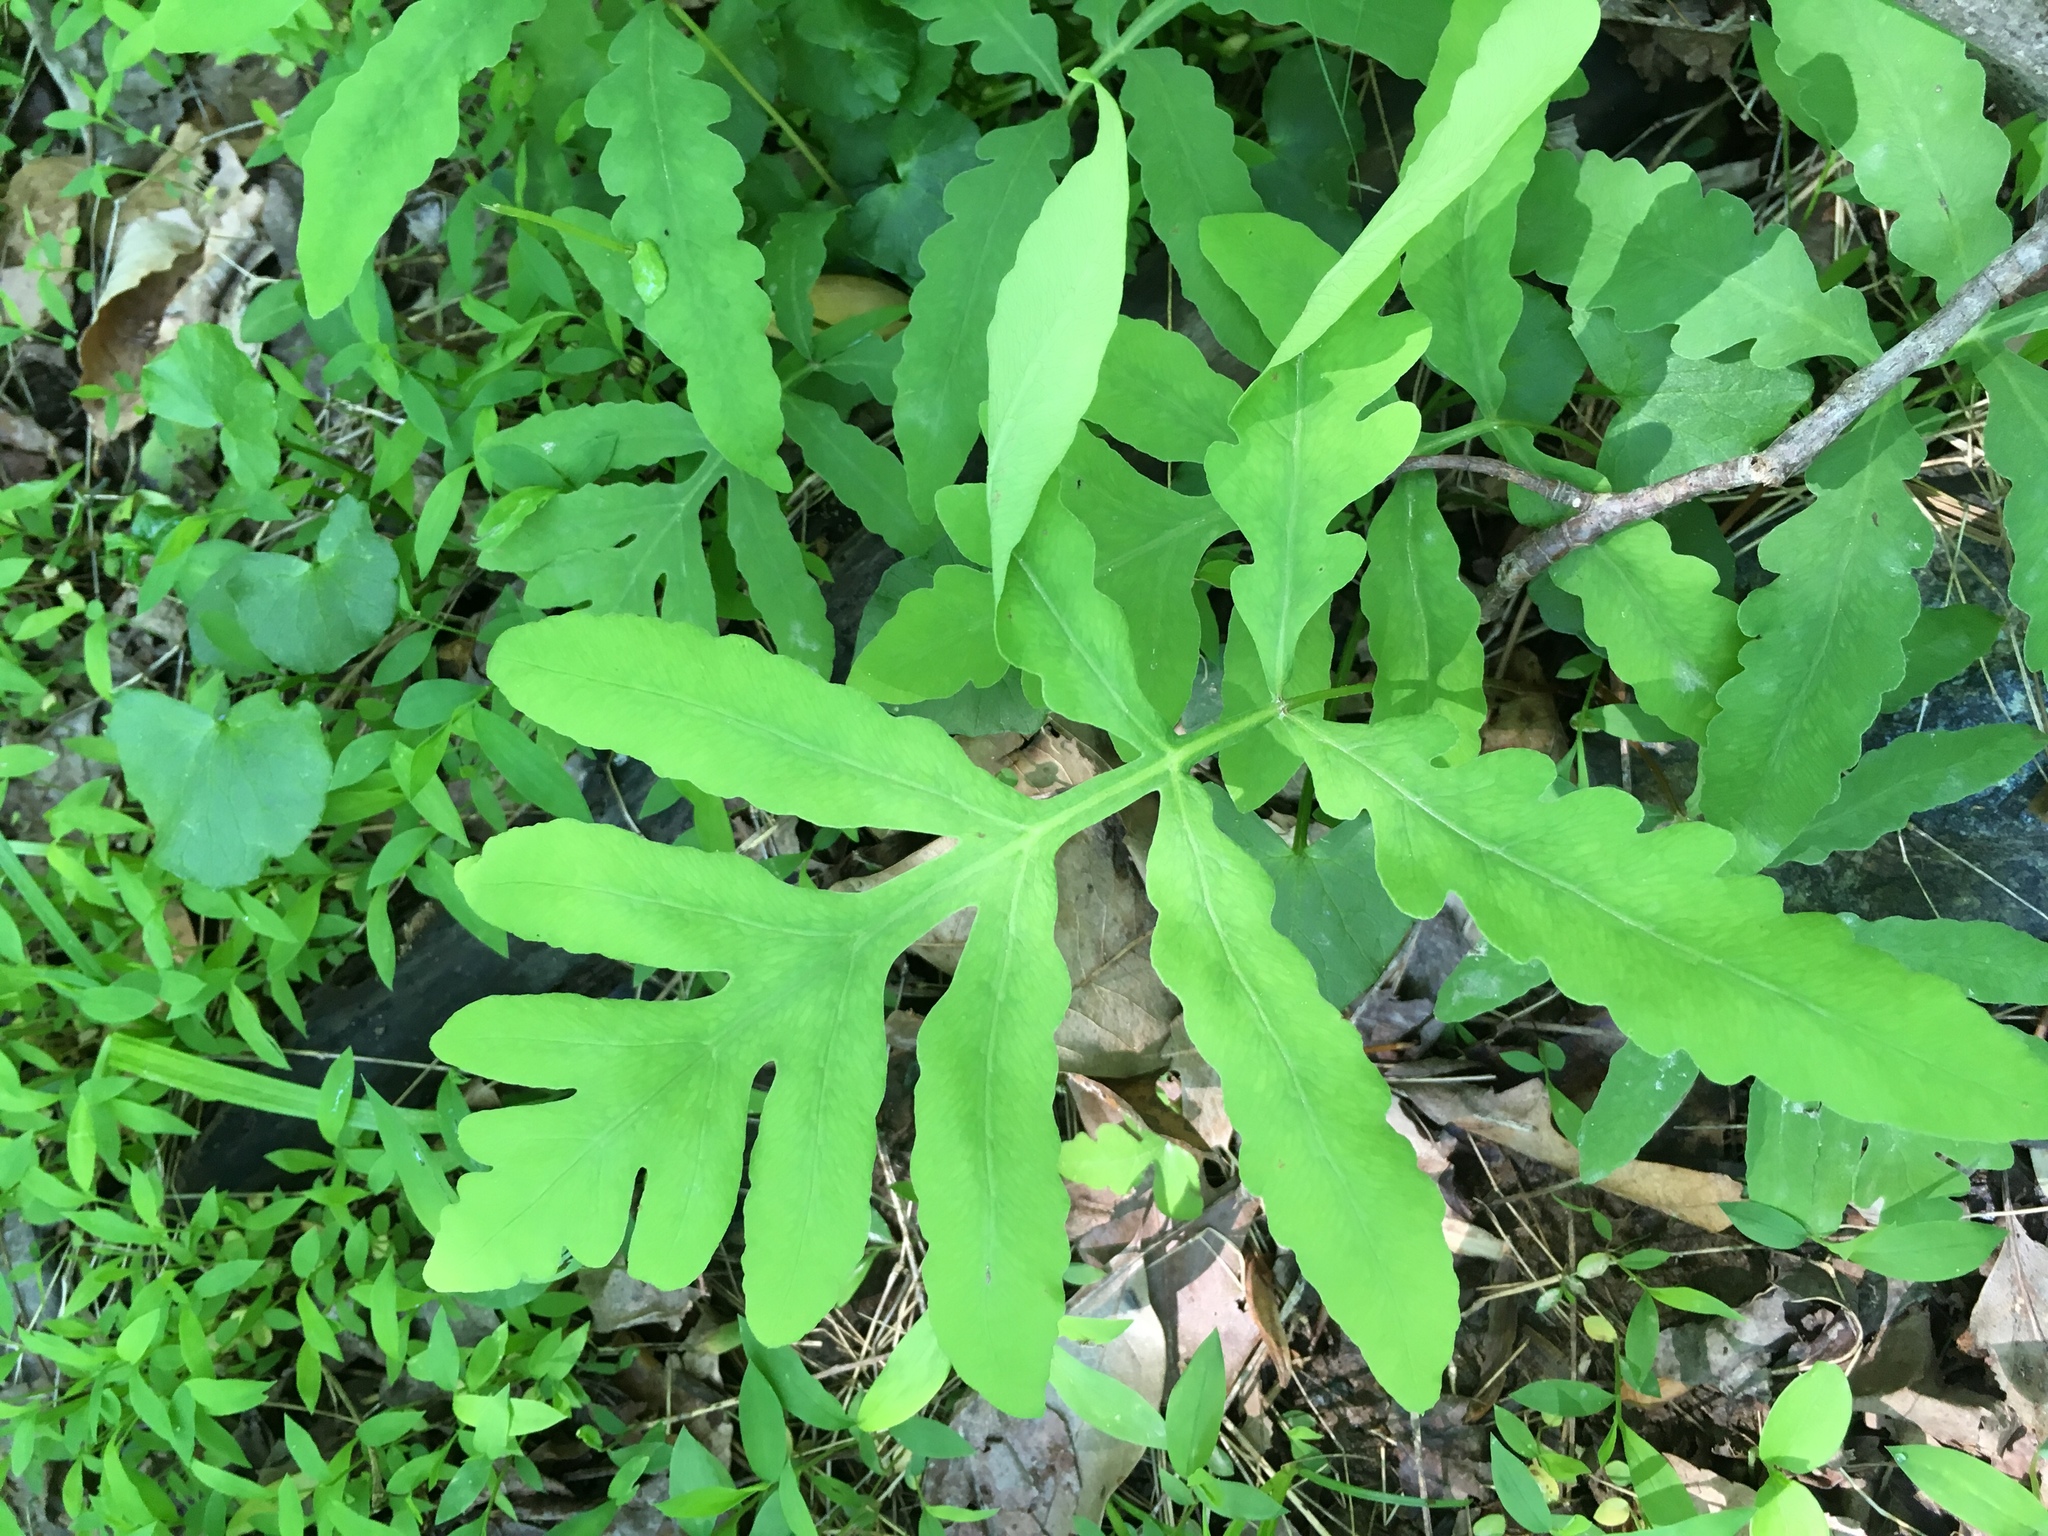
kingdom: Plantae
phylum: Tracheophyta
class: Polypodiopsida
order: Polypodiales
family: Onocleaceae
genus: Onoclea
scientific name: Onoclea sensibilis
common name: Sensitive fern
